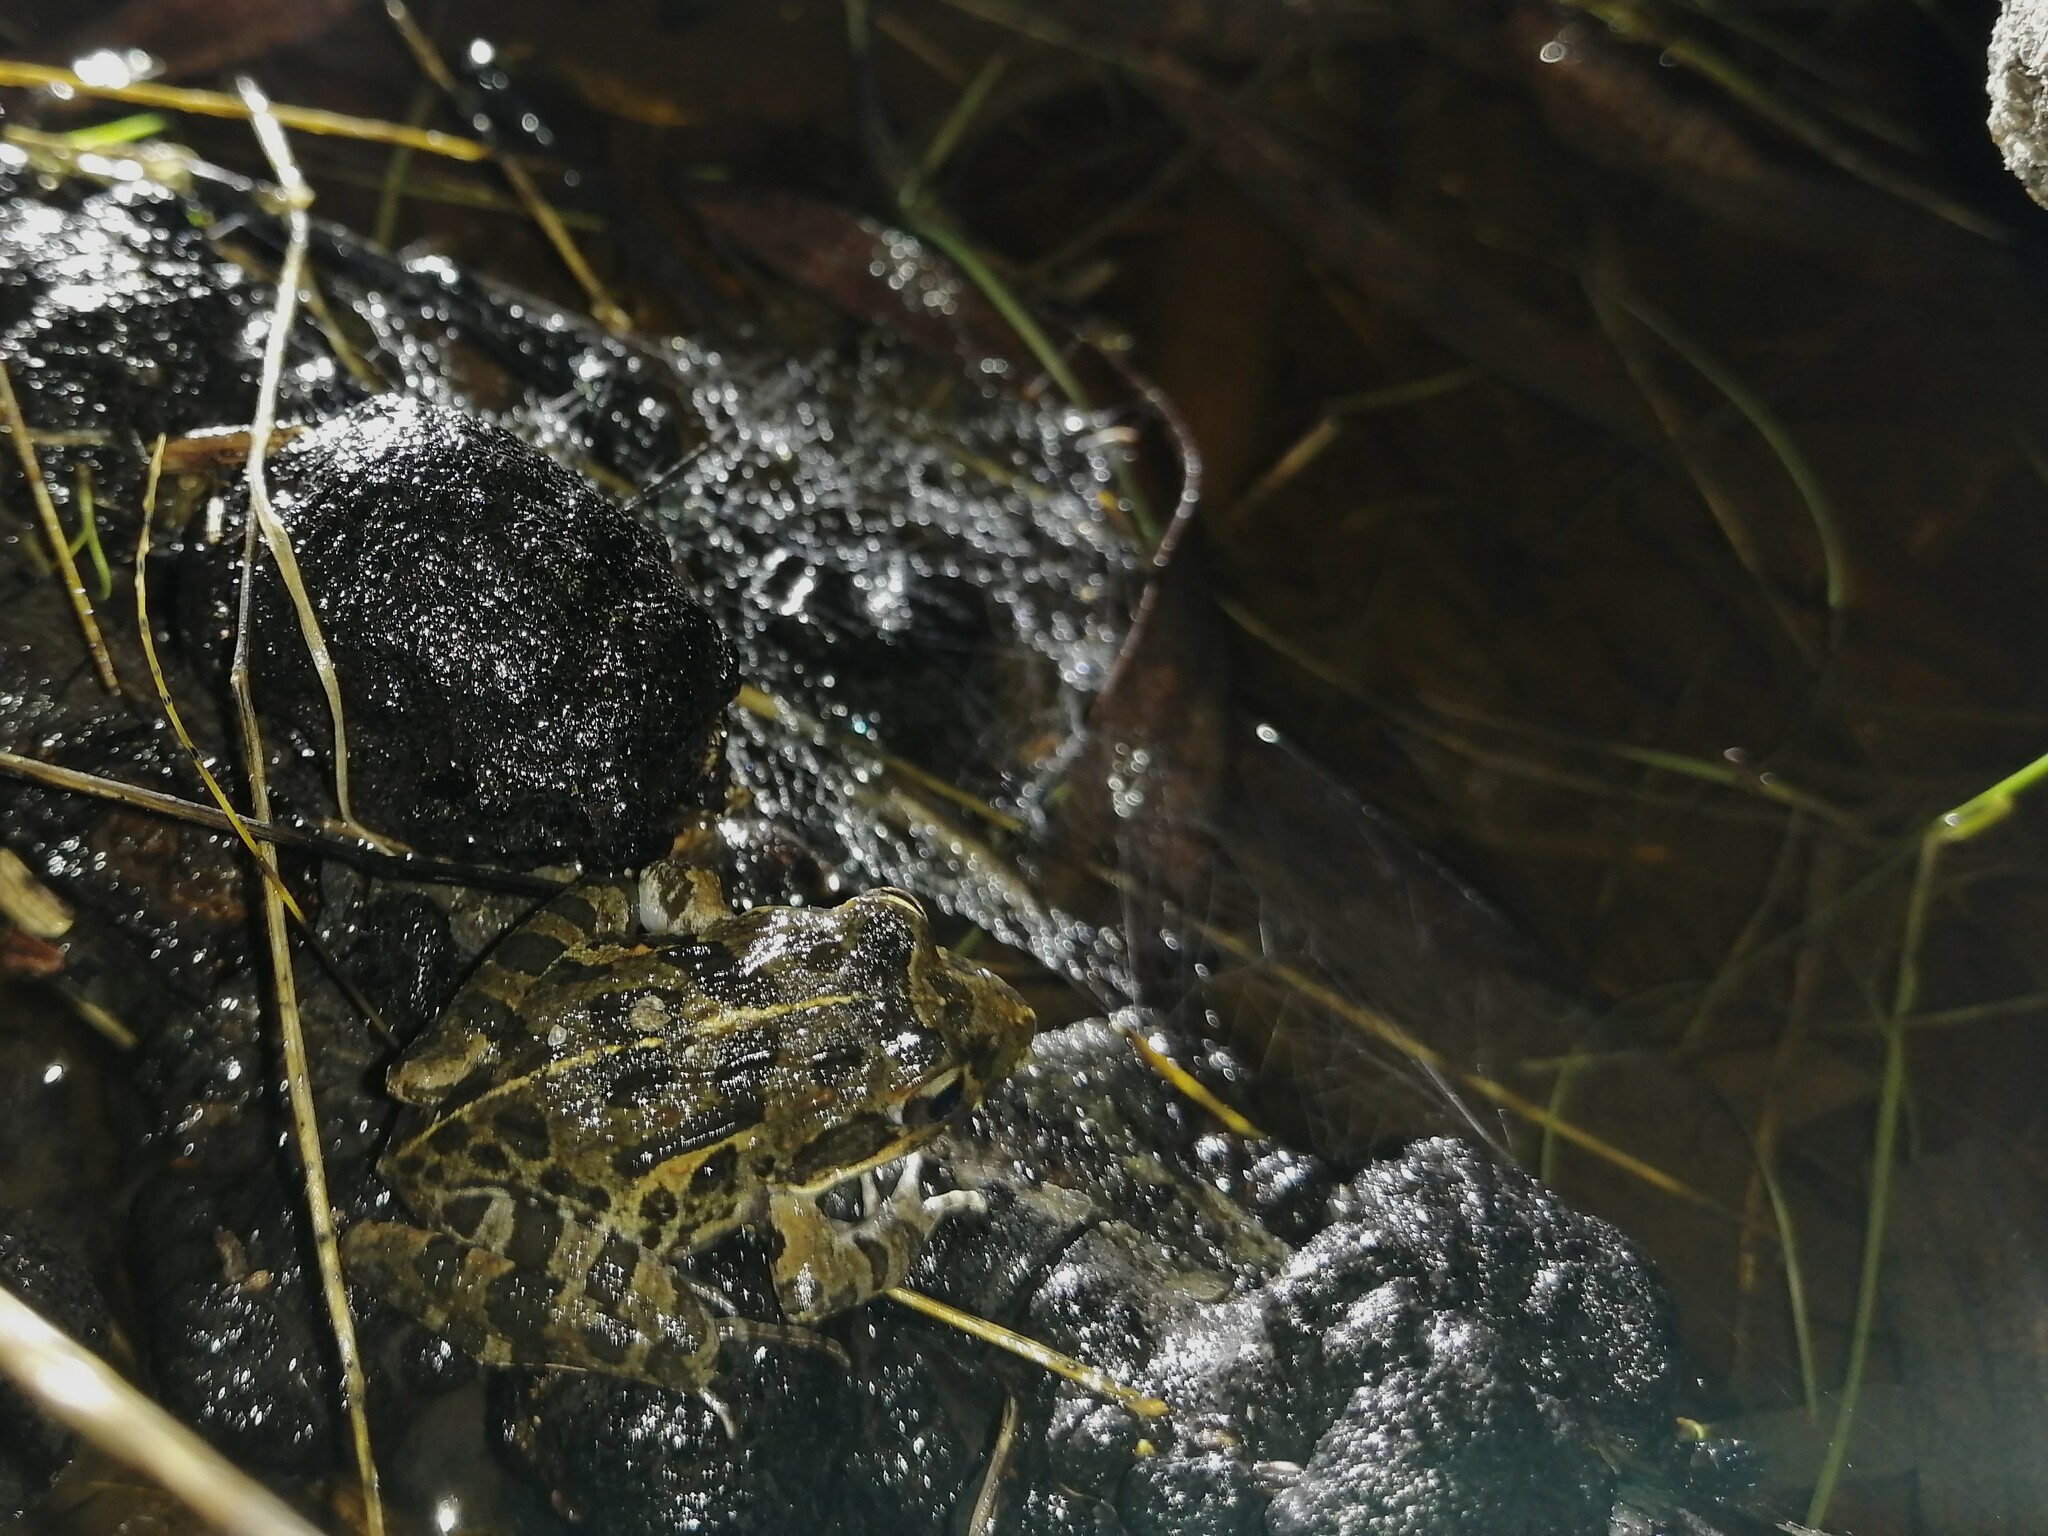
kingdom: Animalia
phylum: Chordata
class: Amphibia
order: Anura
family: Pyxicephalidae
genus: Strongylopus
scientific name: Strongylopus grayii
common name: Gray's stream frog
